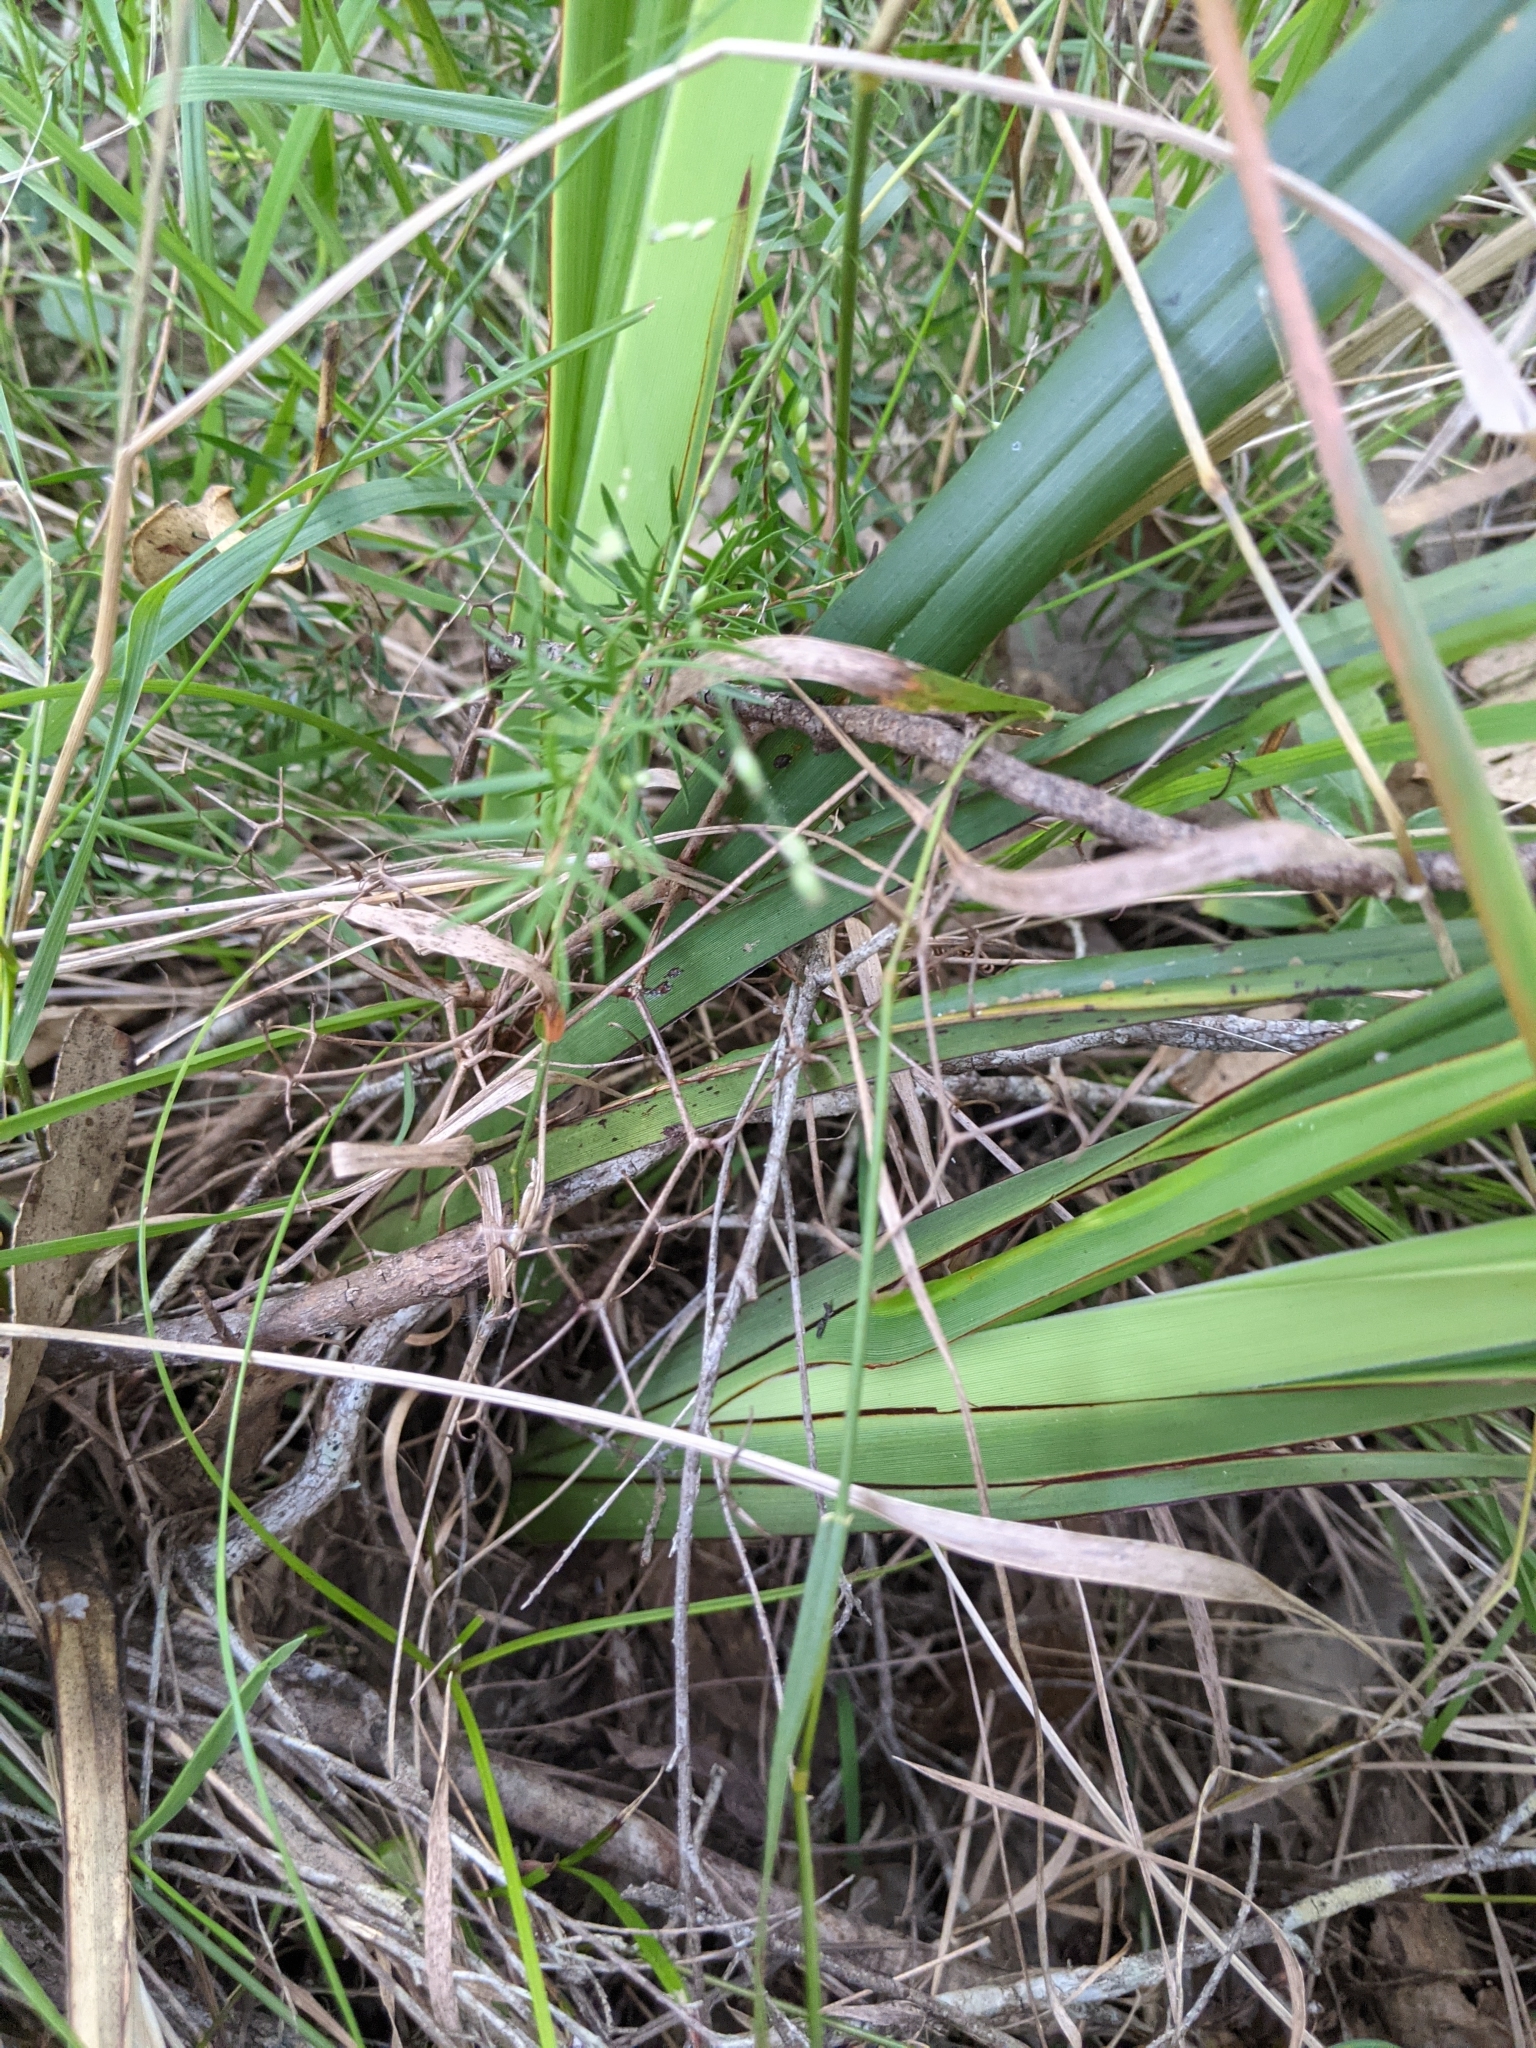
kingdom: Plantae
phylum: Tracheophyta
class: Liliopsida
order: Asparagales
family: Asphodelaceae
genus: Dianella
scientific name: Dianella brevipedunculata
